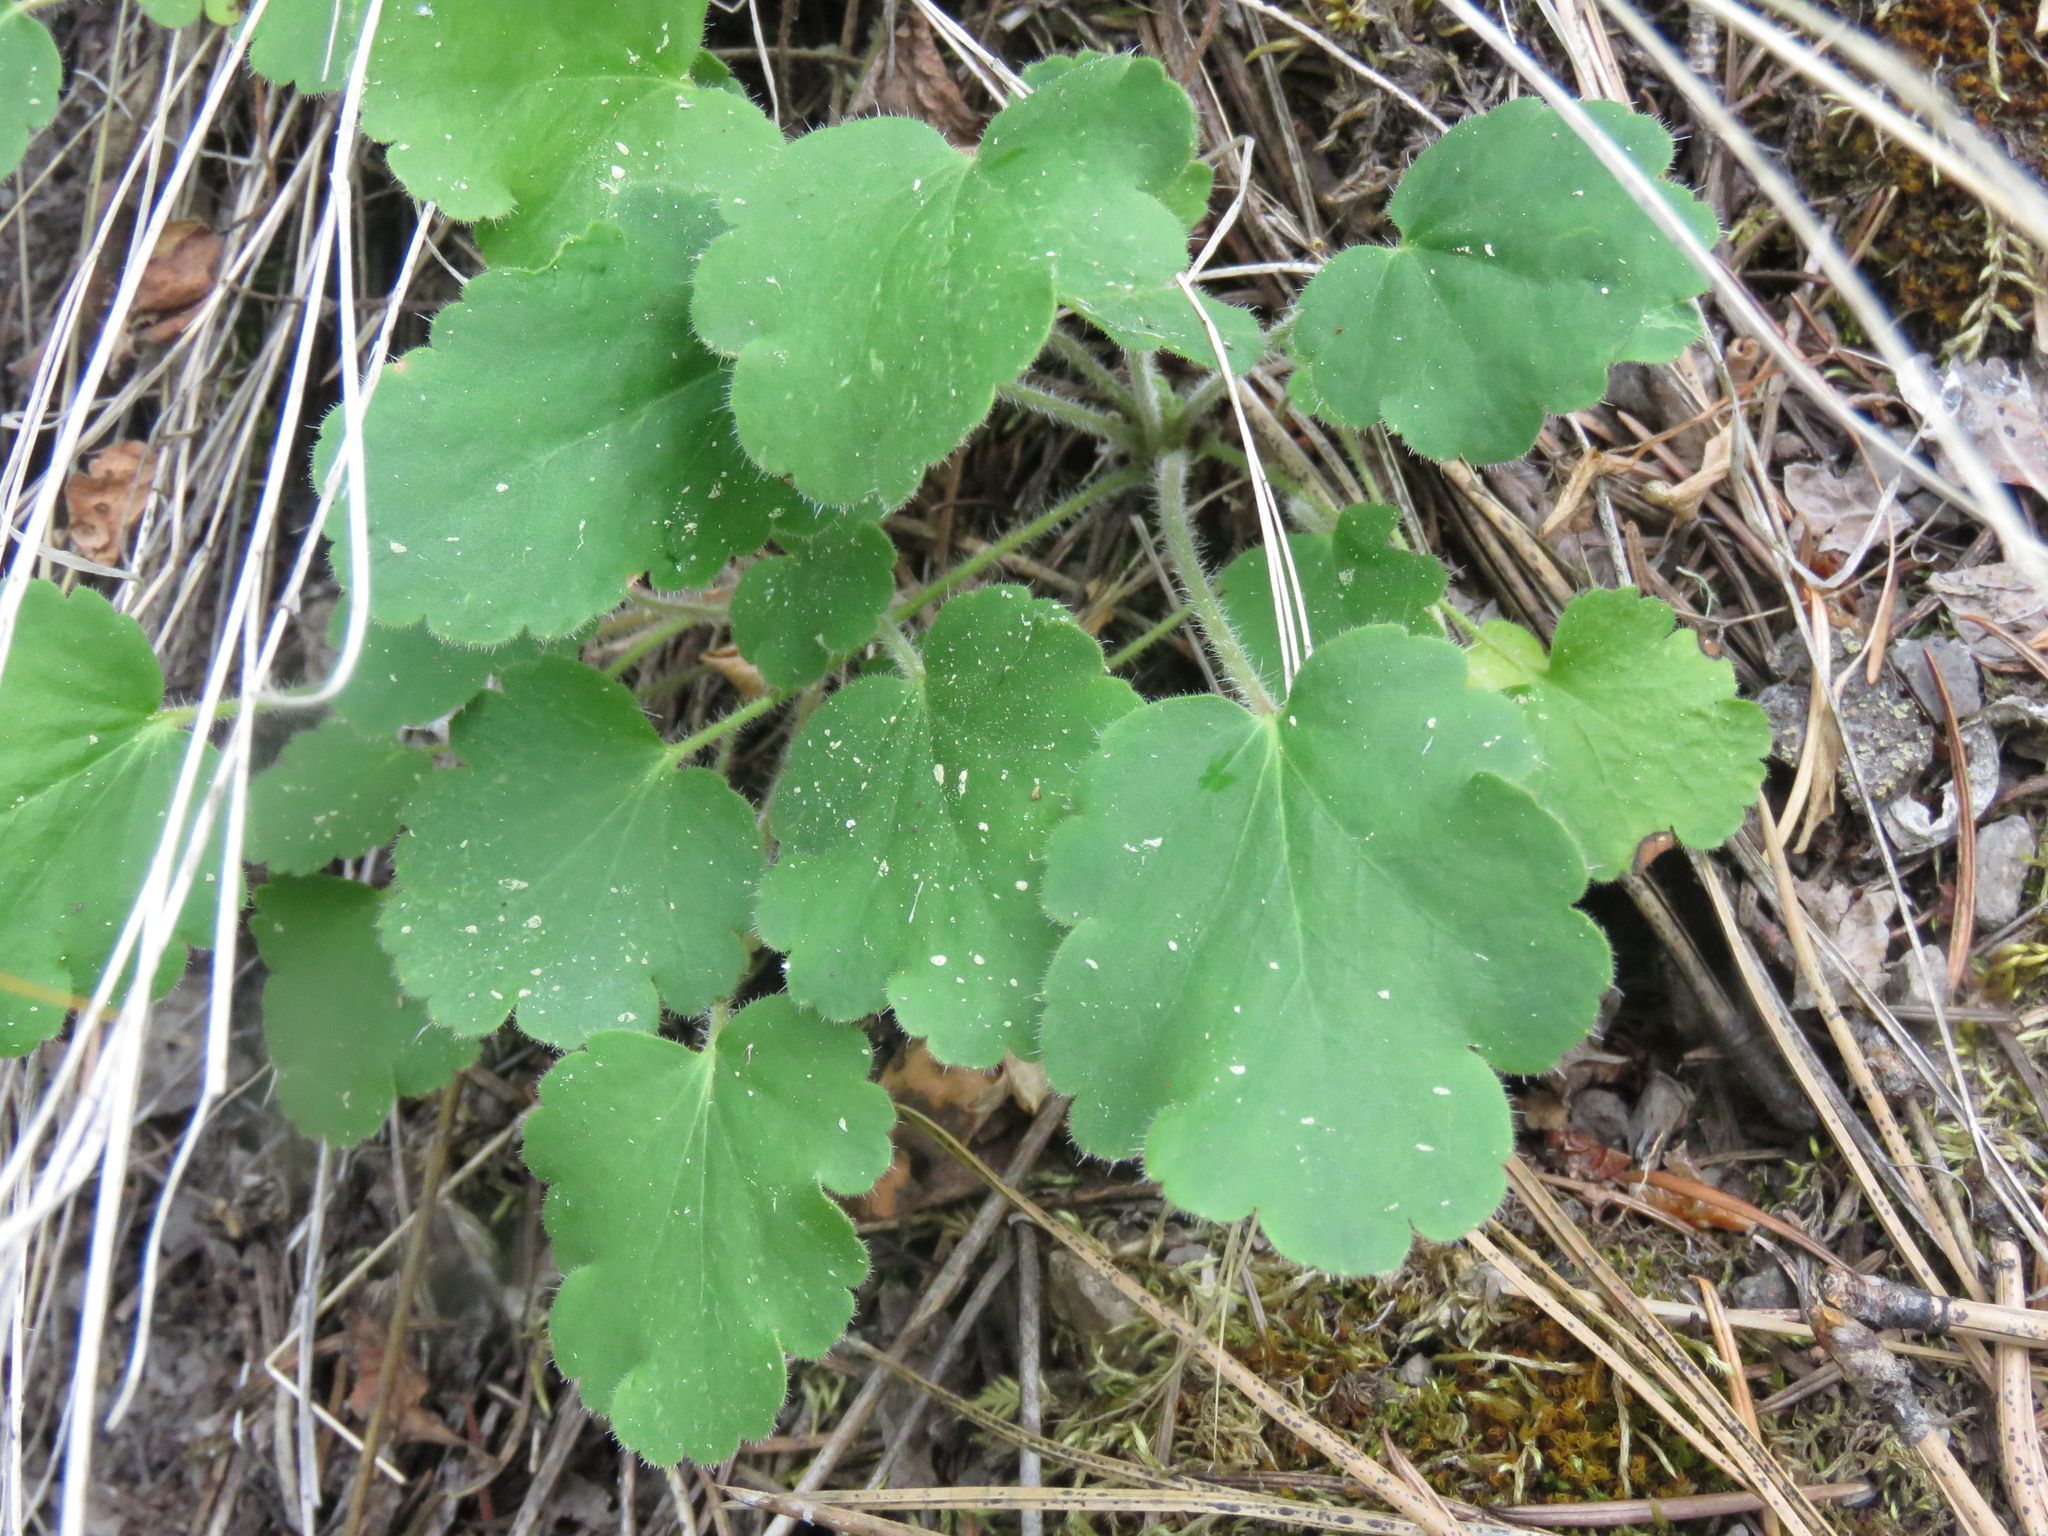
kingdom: Plantae
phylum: Tracheophyta
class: Magnoliopsida
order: Saxifragales
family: Saxifragaceae
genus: Heuchera
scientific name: Heuchera cylindrica
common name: Mat alumroot
